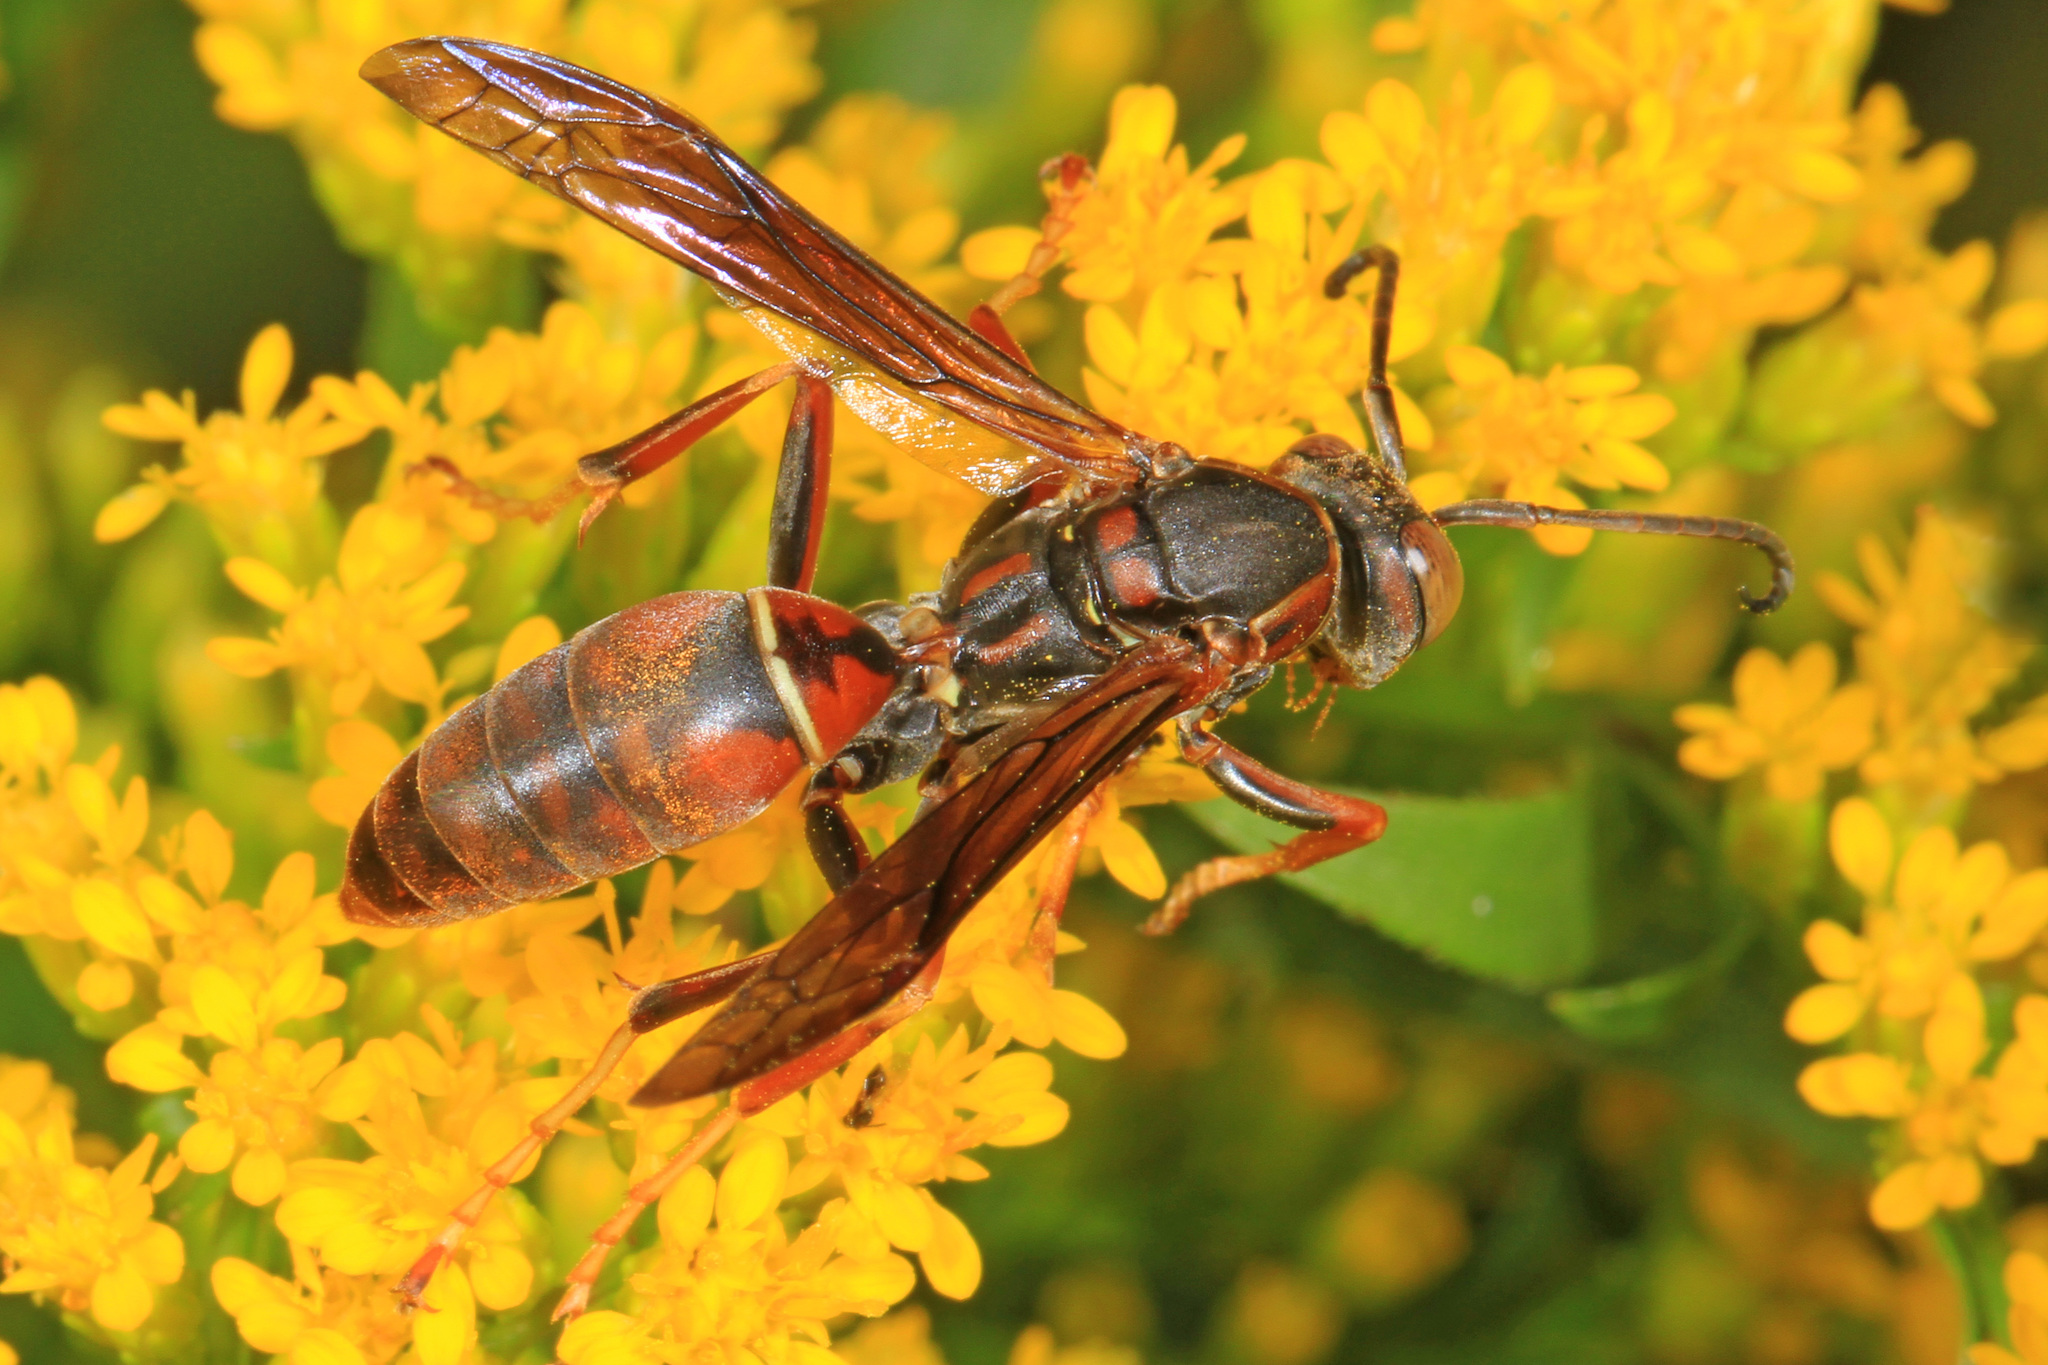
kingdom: Animalia
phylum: Arthropoda
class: Insecta
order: Hymenoptera
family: Eumenidae
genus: Polistes
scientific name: Polistes fuscatus
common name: Dark paper wasp
